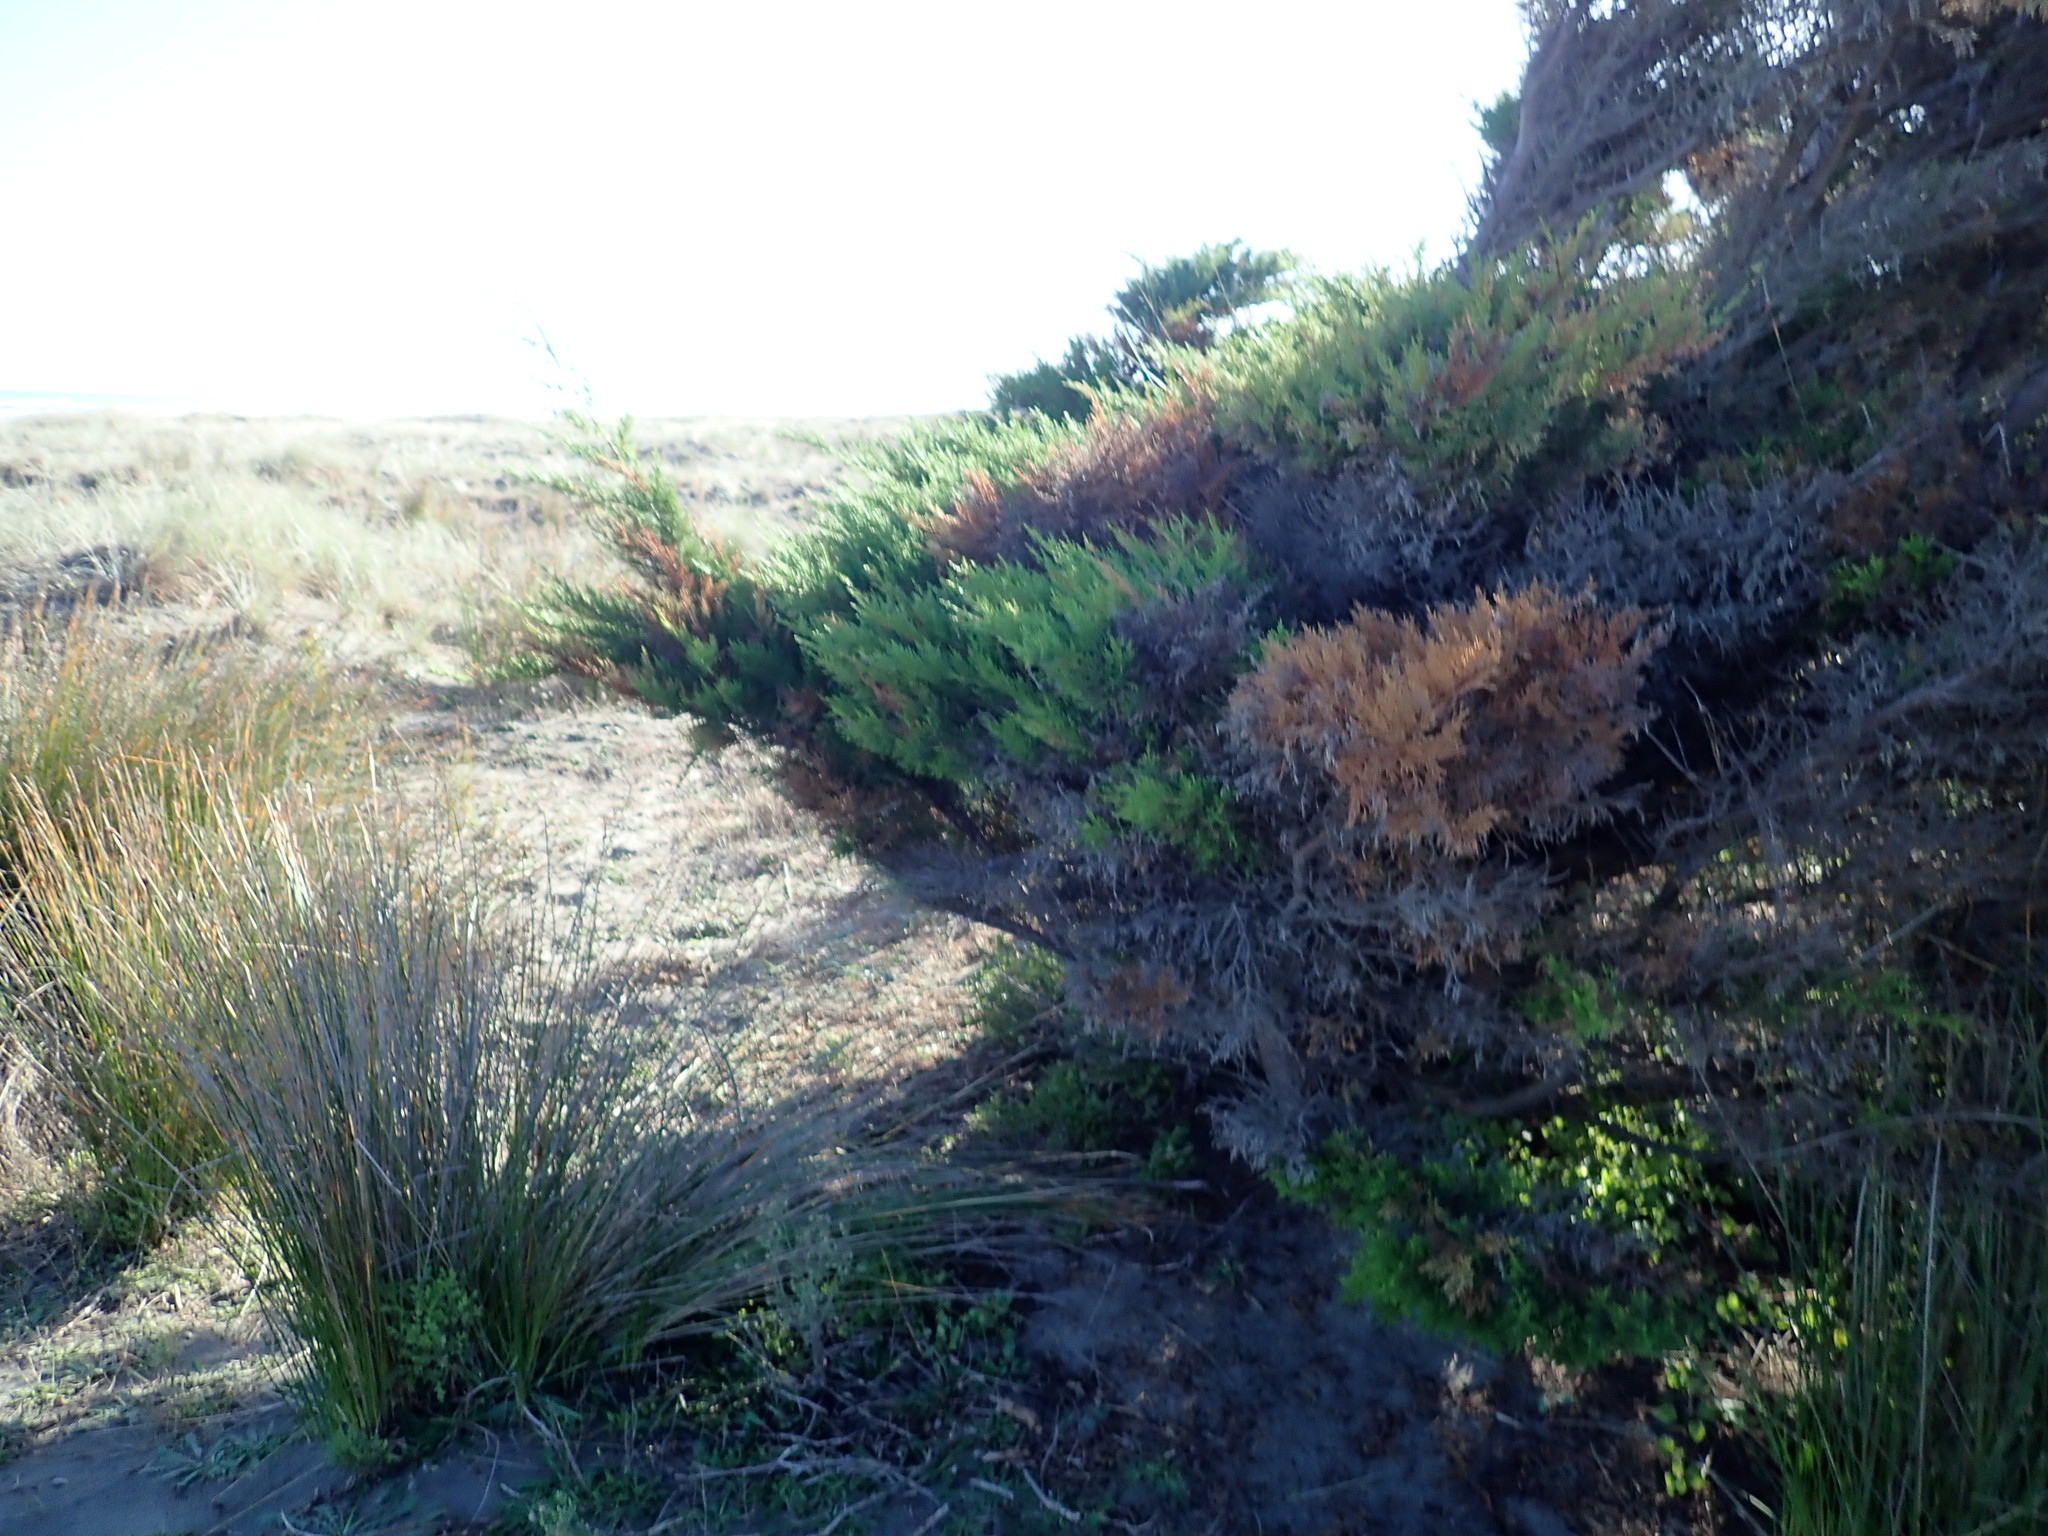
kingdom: Plantae
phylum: Tracheophyta
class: Pinopsida
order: Pinales
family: Cupressaceae
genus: Cupressus
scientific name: Cupressus macrocarpa
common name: Monterey cypress
